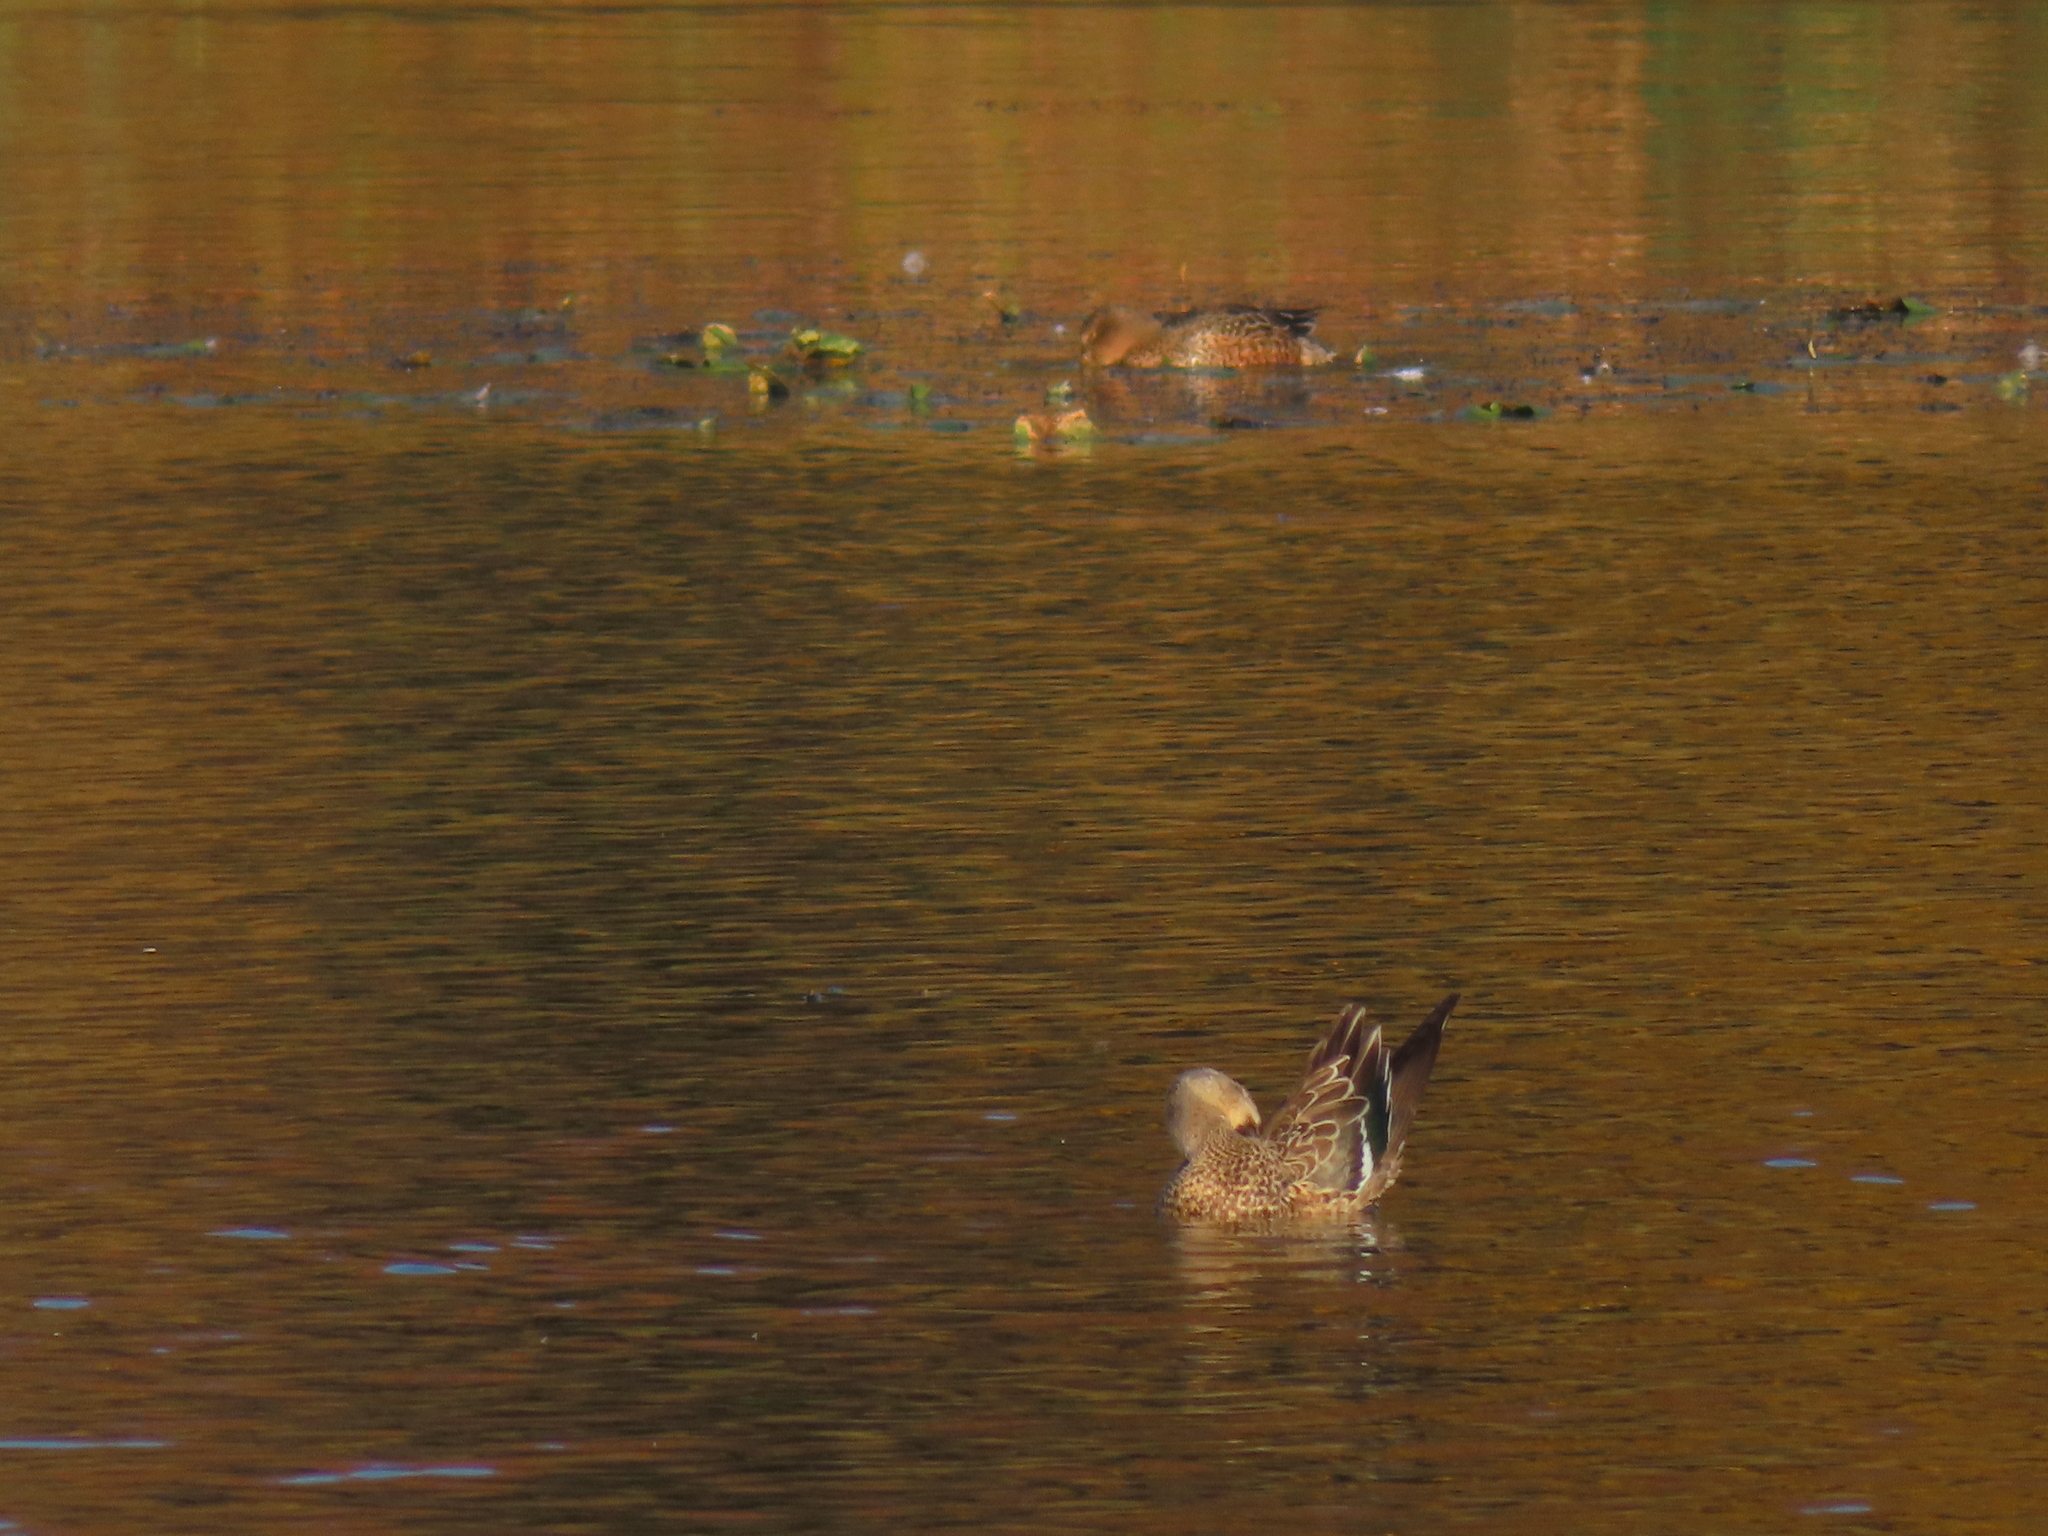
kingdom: Animalia
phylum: Chordata
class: Aves
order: Anseriformes
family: Anatidae
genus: Spatula
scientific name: Spatula clypeata
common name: Northern shoveler
